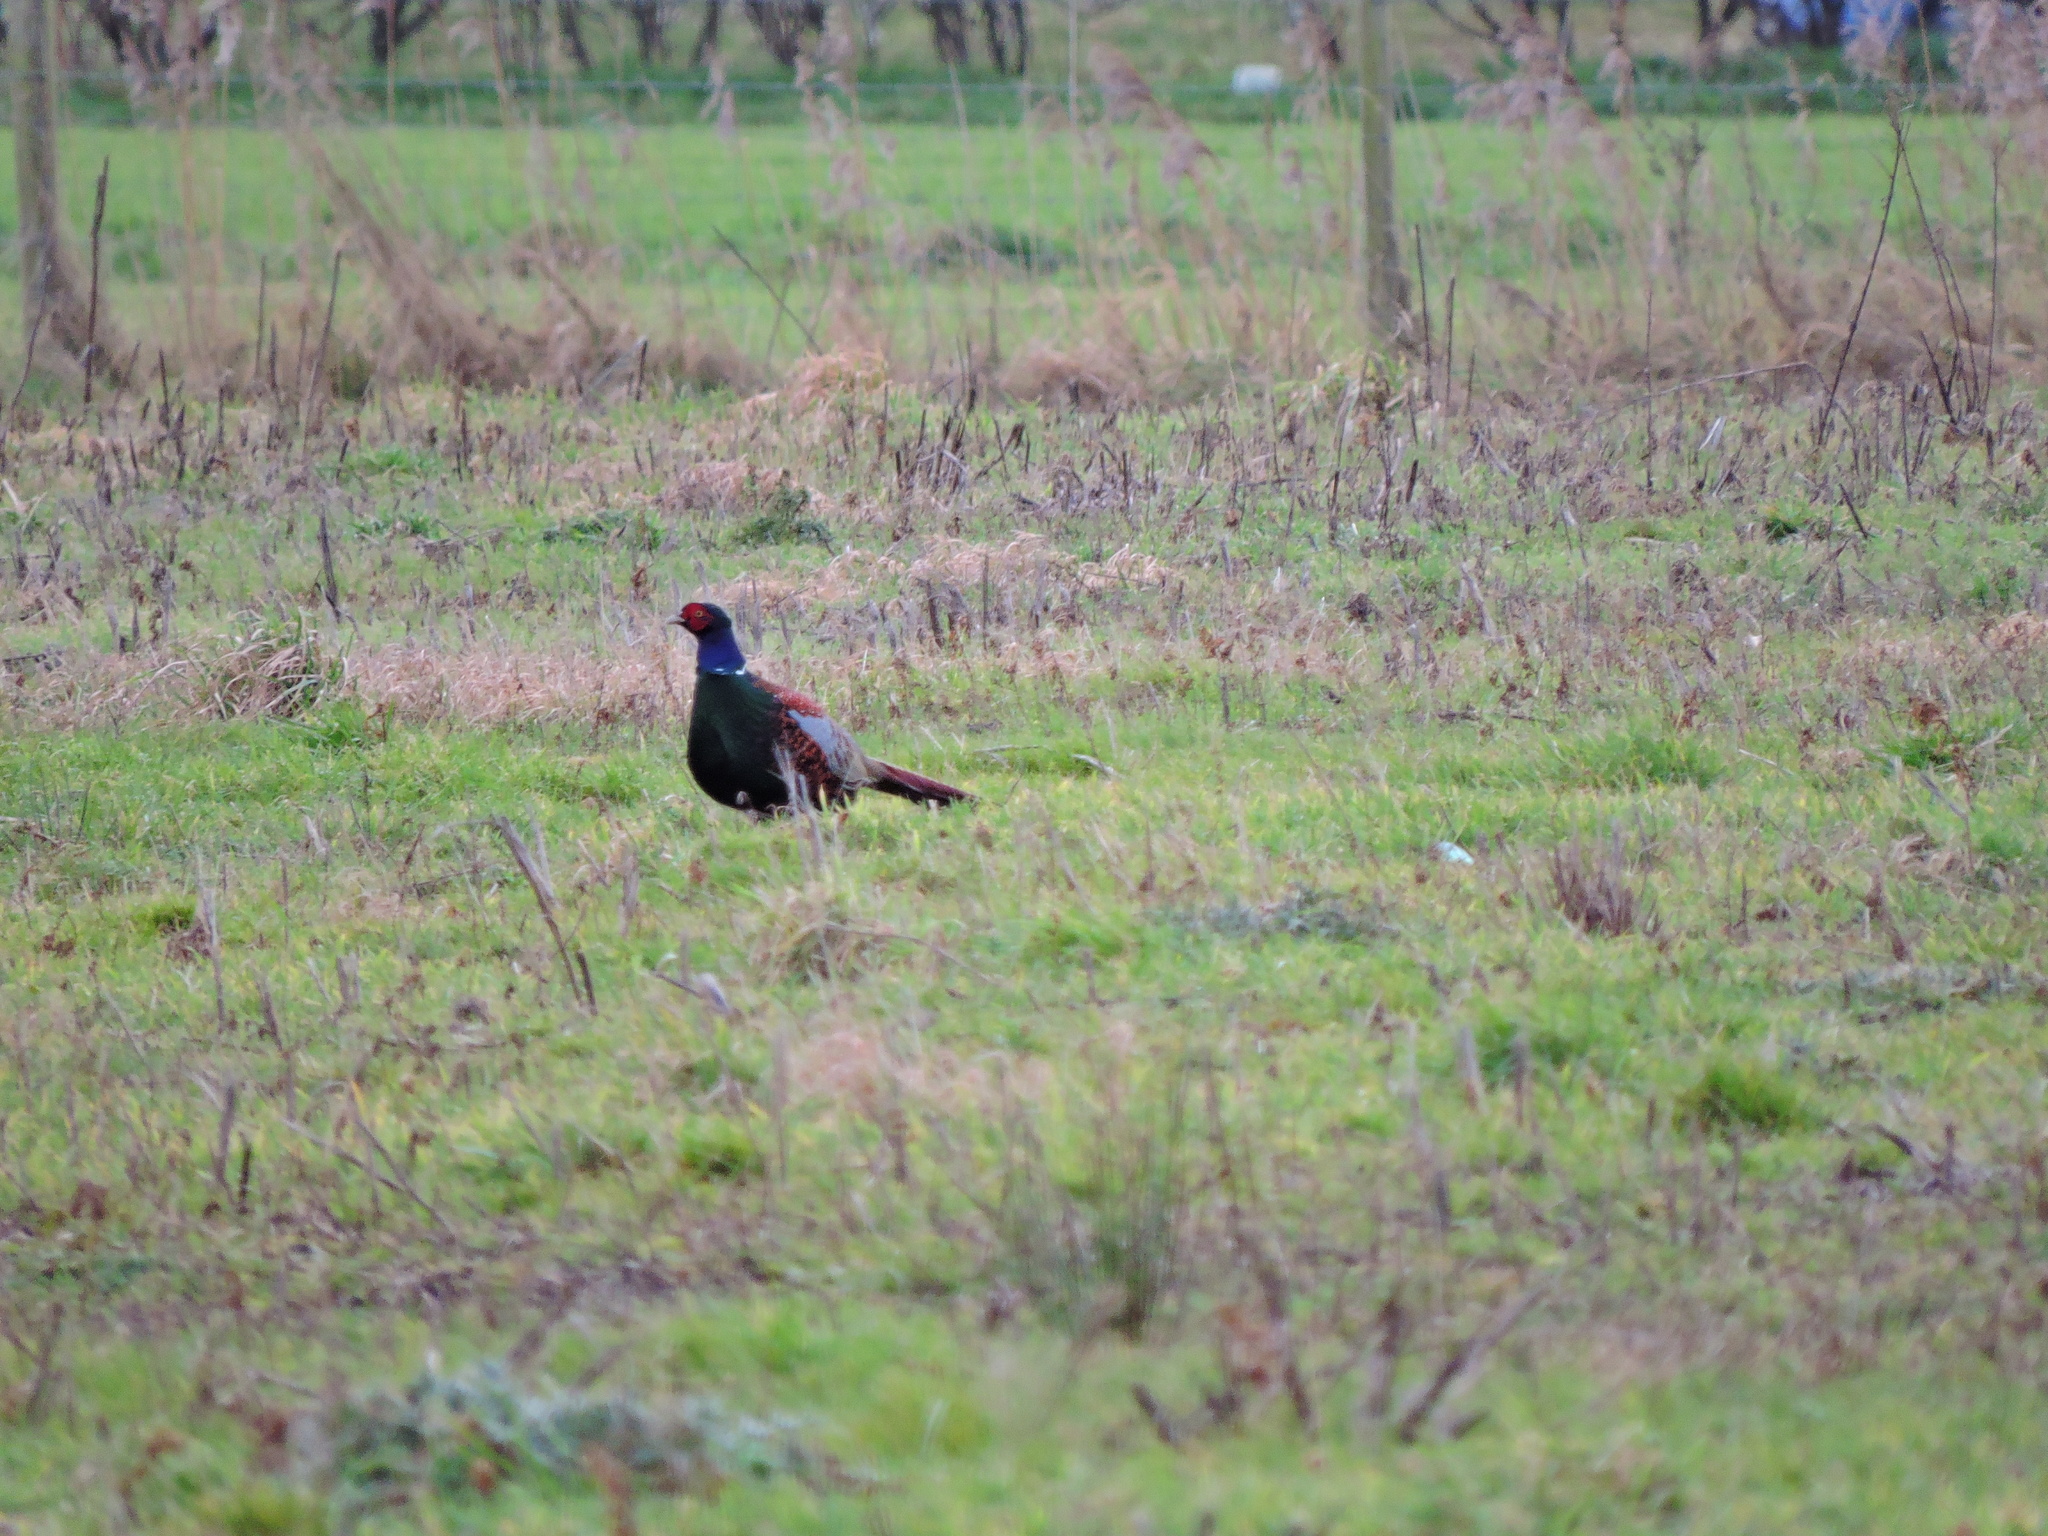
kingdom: Animalia
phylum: Chordata
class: Aves
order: Galliformes
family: Phasianidae
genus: Phasianus
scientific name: Phasianus colchicus
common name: Common pheasant
